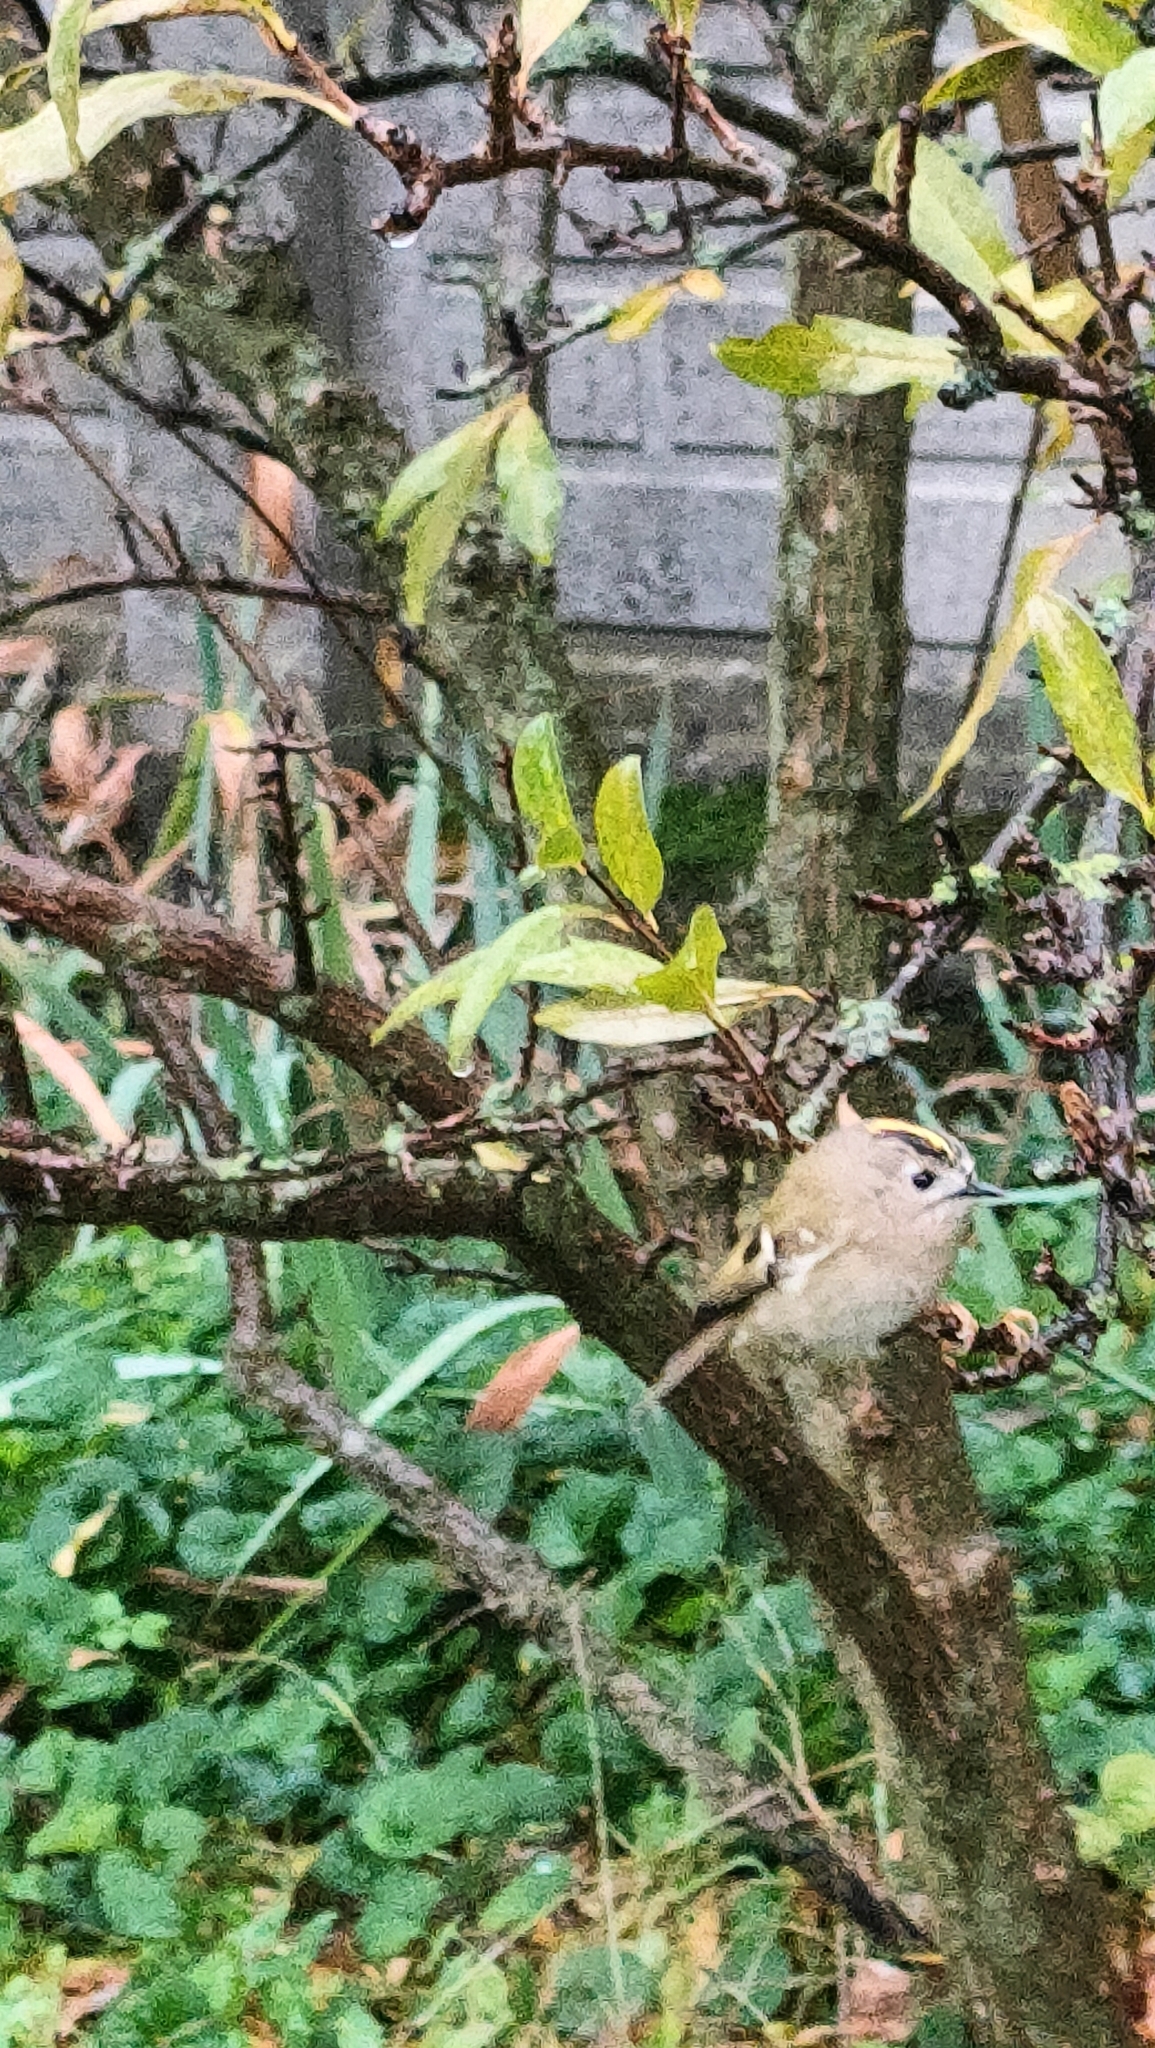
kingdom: Animalia
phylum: Chordata
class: Aves
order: Passeriformes
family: Regulidae
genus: Regulus
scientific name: Regulus regulus
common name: Goldcrest
